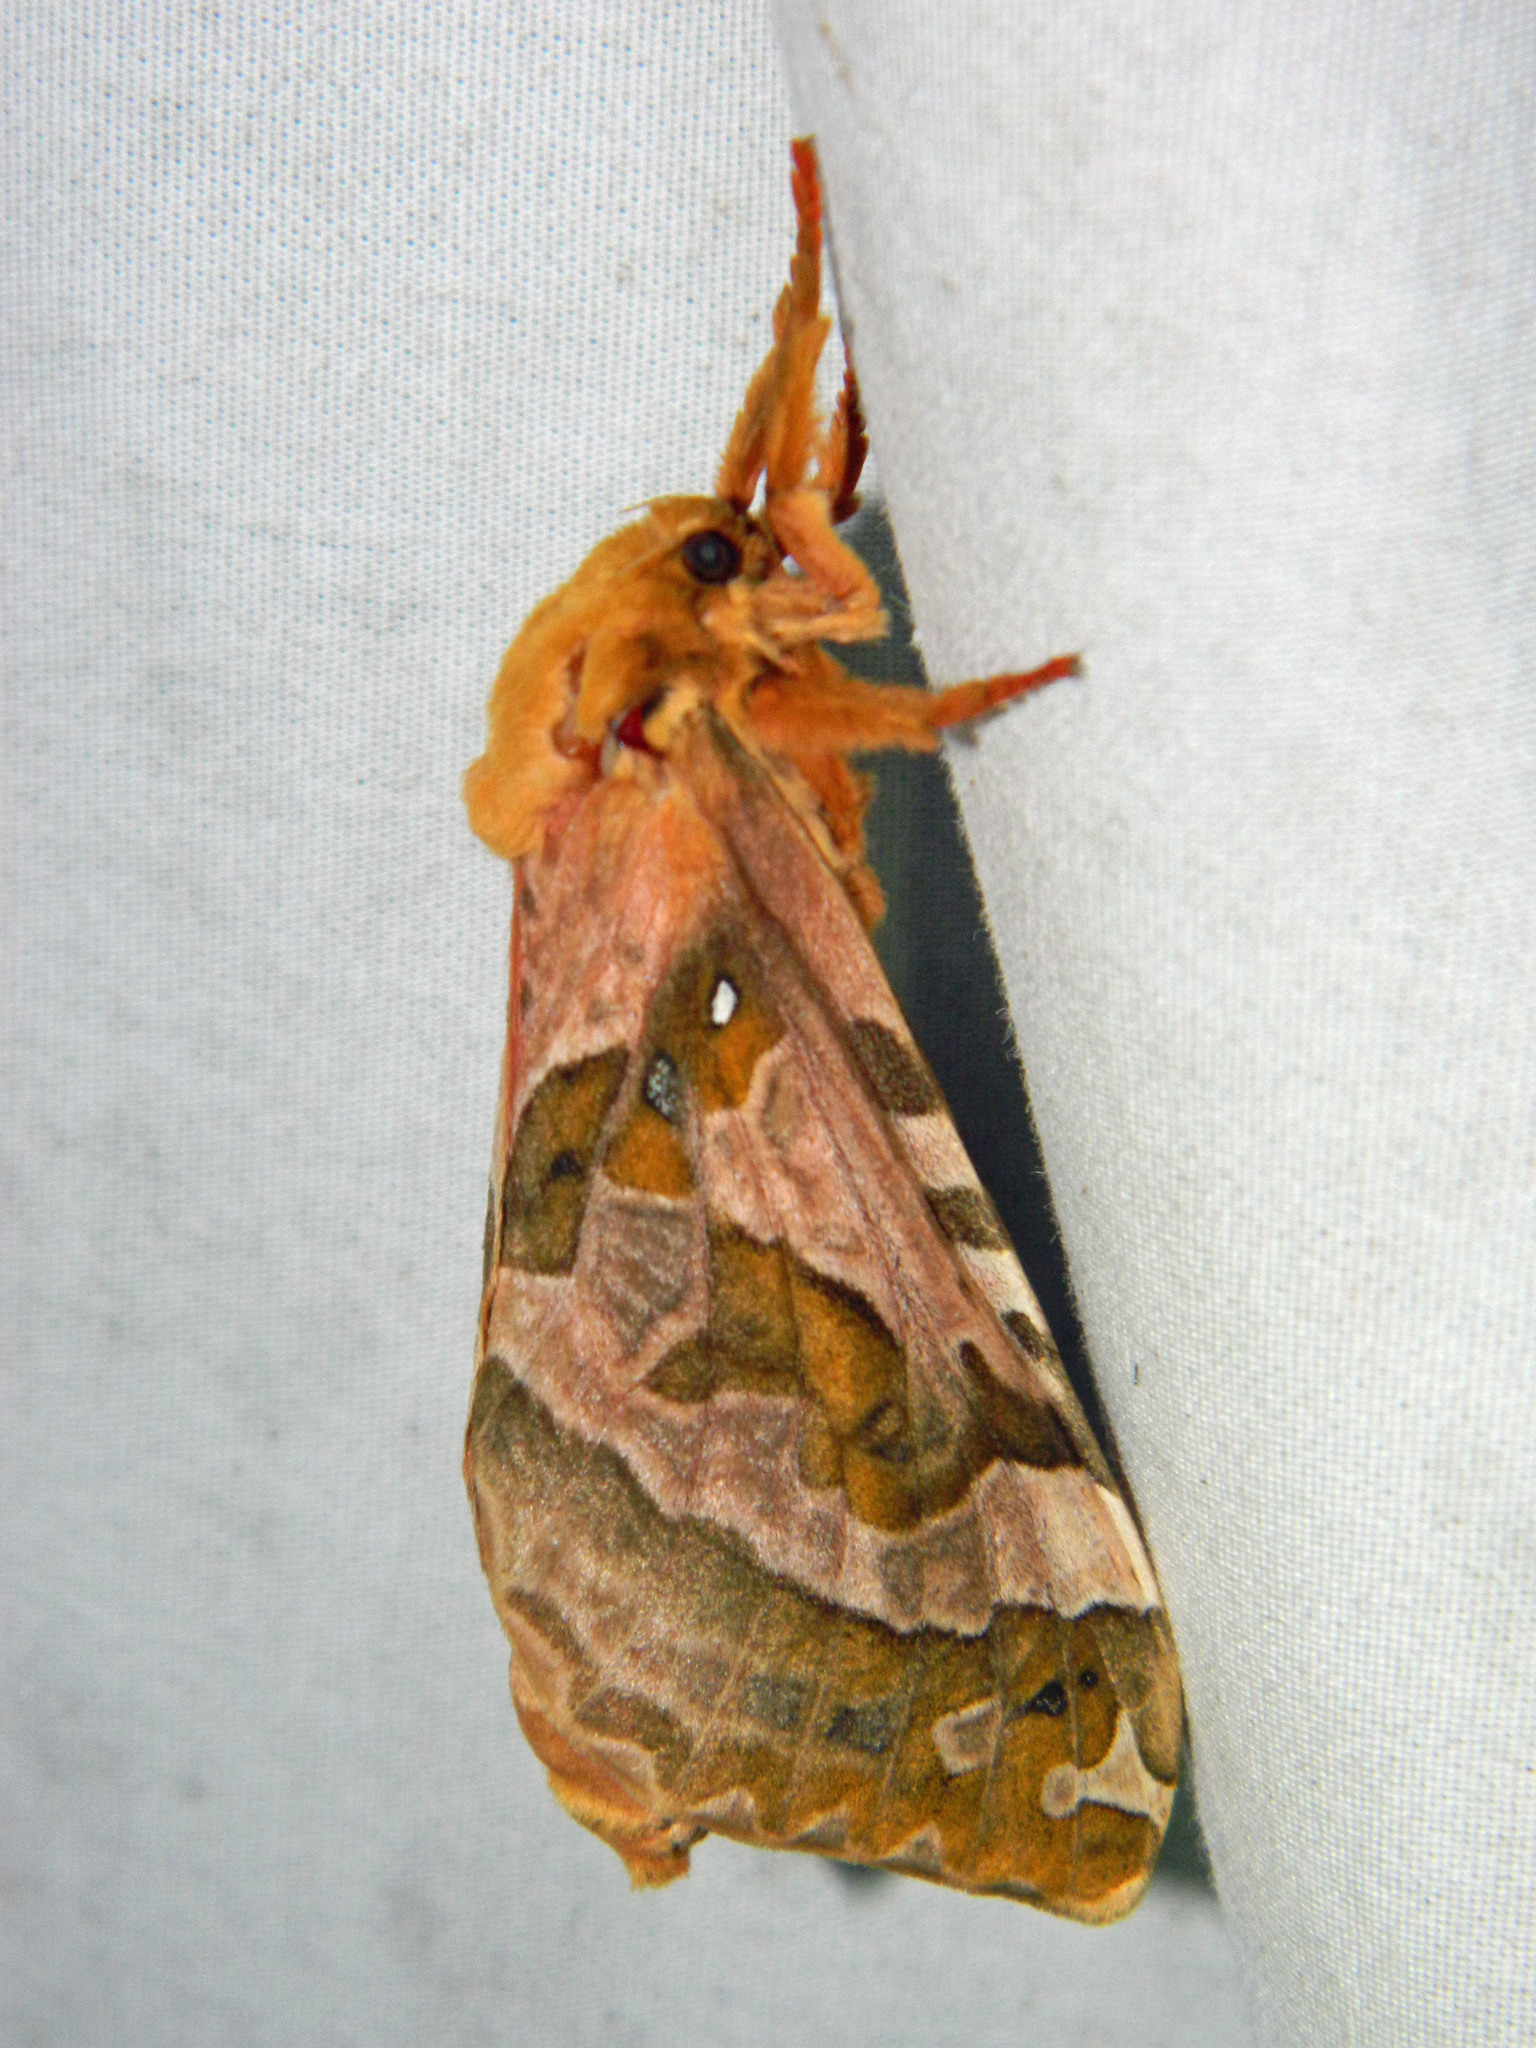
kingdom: Animalia
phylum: Arthropoda
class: Insecta
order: Lepidoptera
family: Hepialidae
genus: Sthenopis
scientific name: Sthenopis purpurascens
